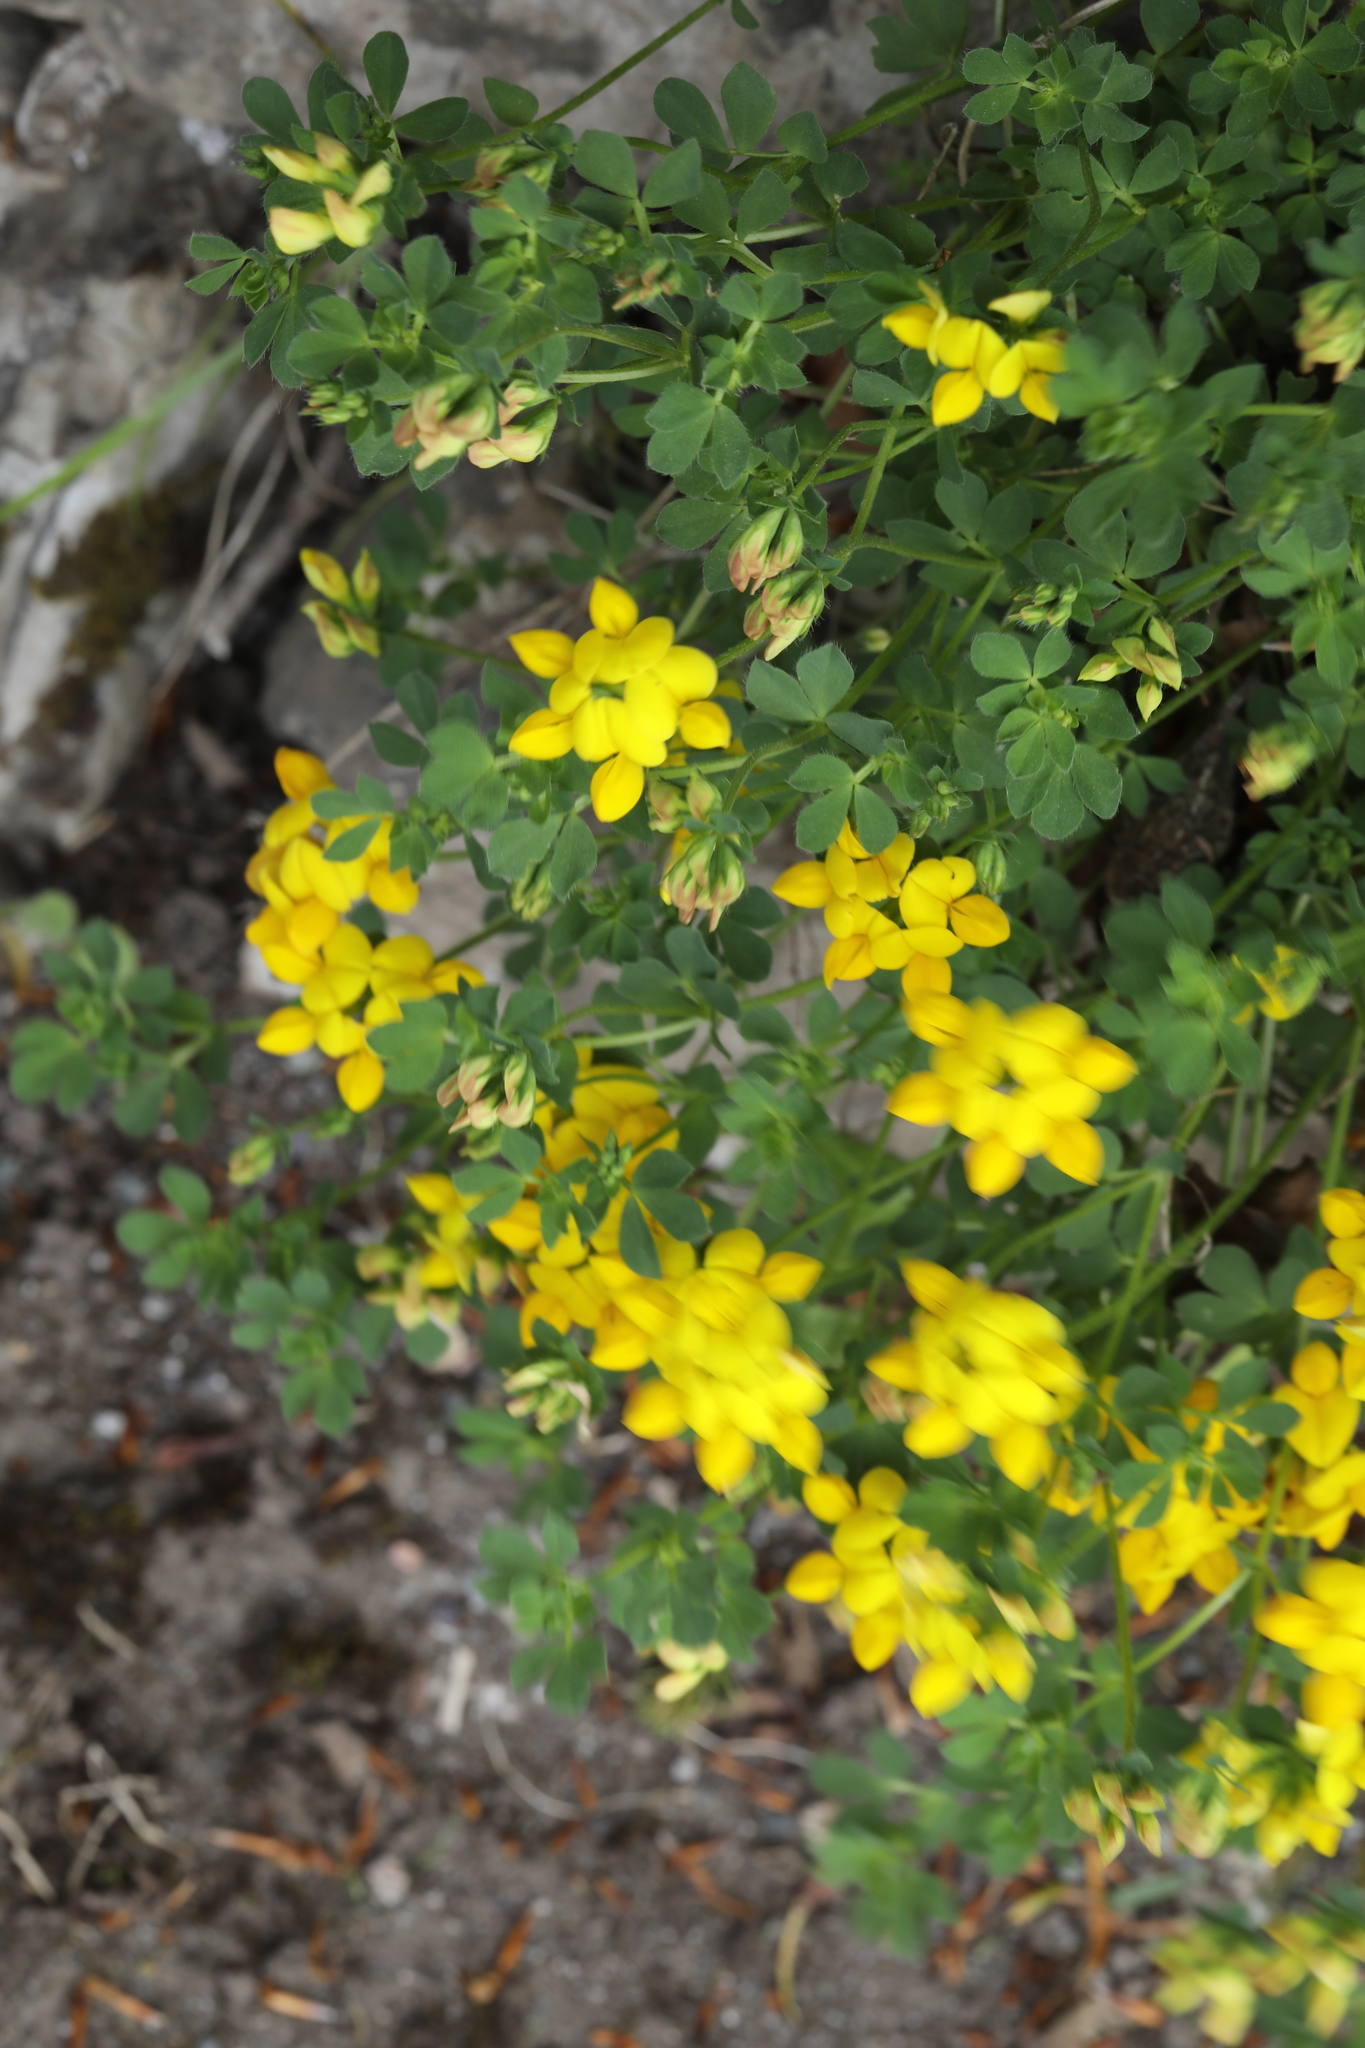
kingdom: Plantae
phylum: Tracheophyta
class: Magnoliopsida
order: Fabales
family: Fabaceae
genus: Lotus
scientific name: Lotus corniculatus
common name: Common bird's-foot-trefoil
